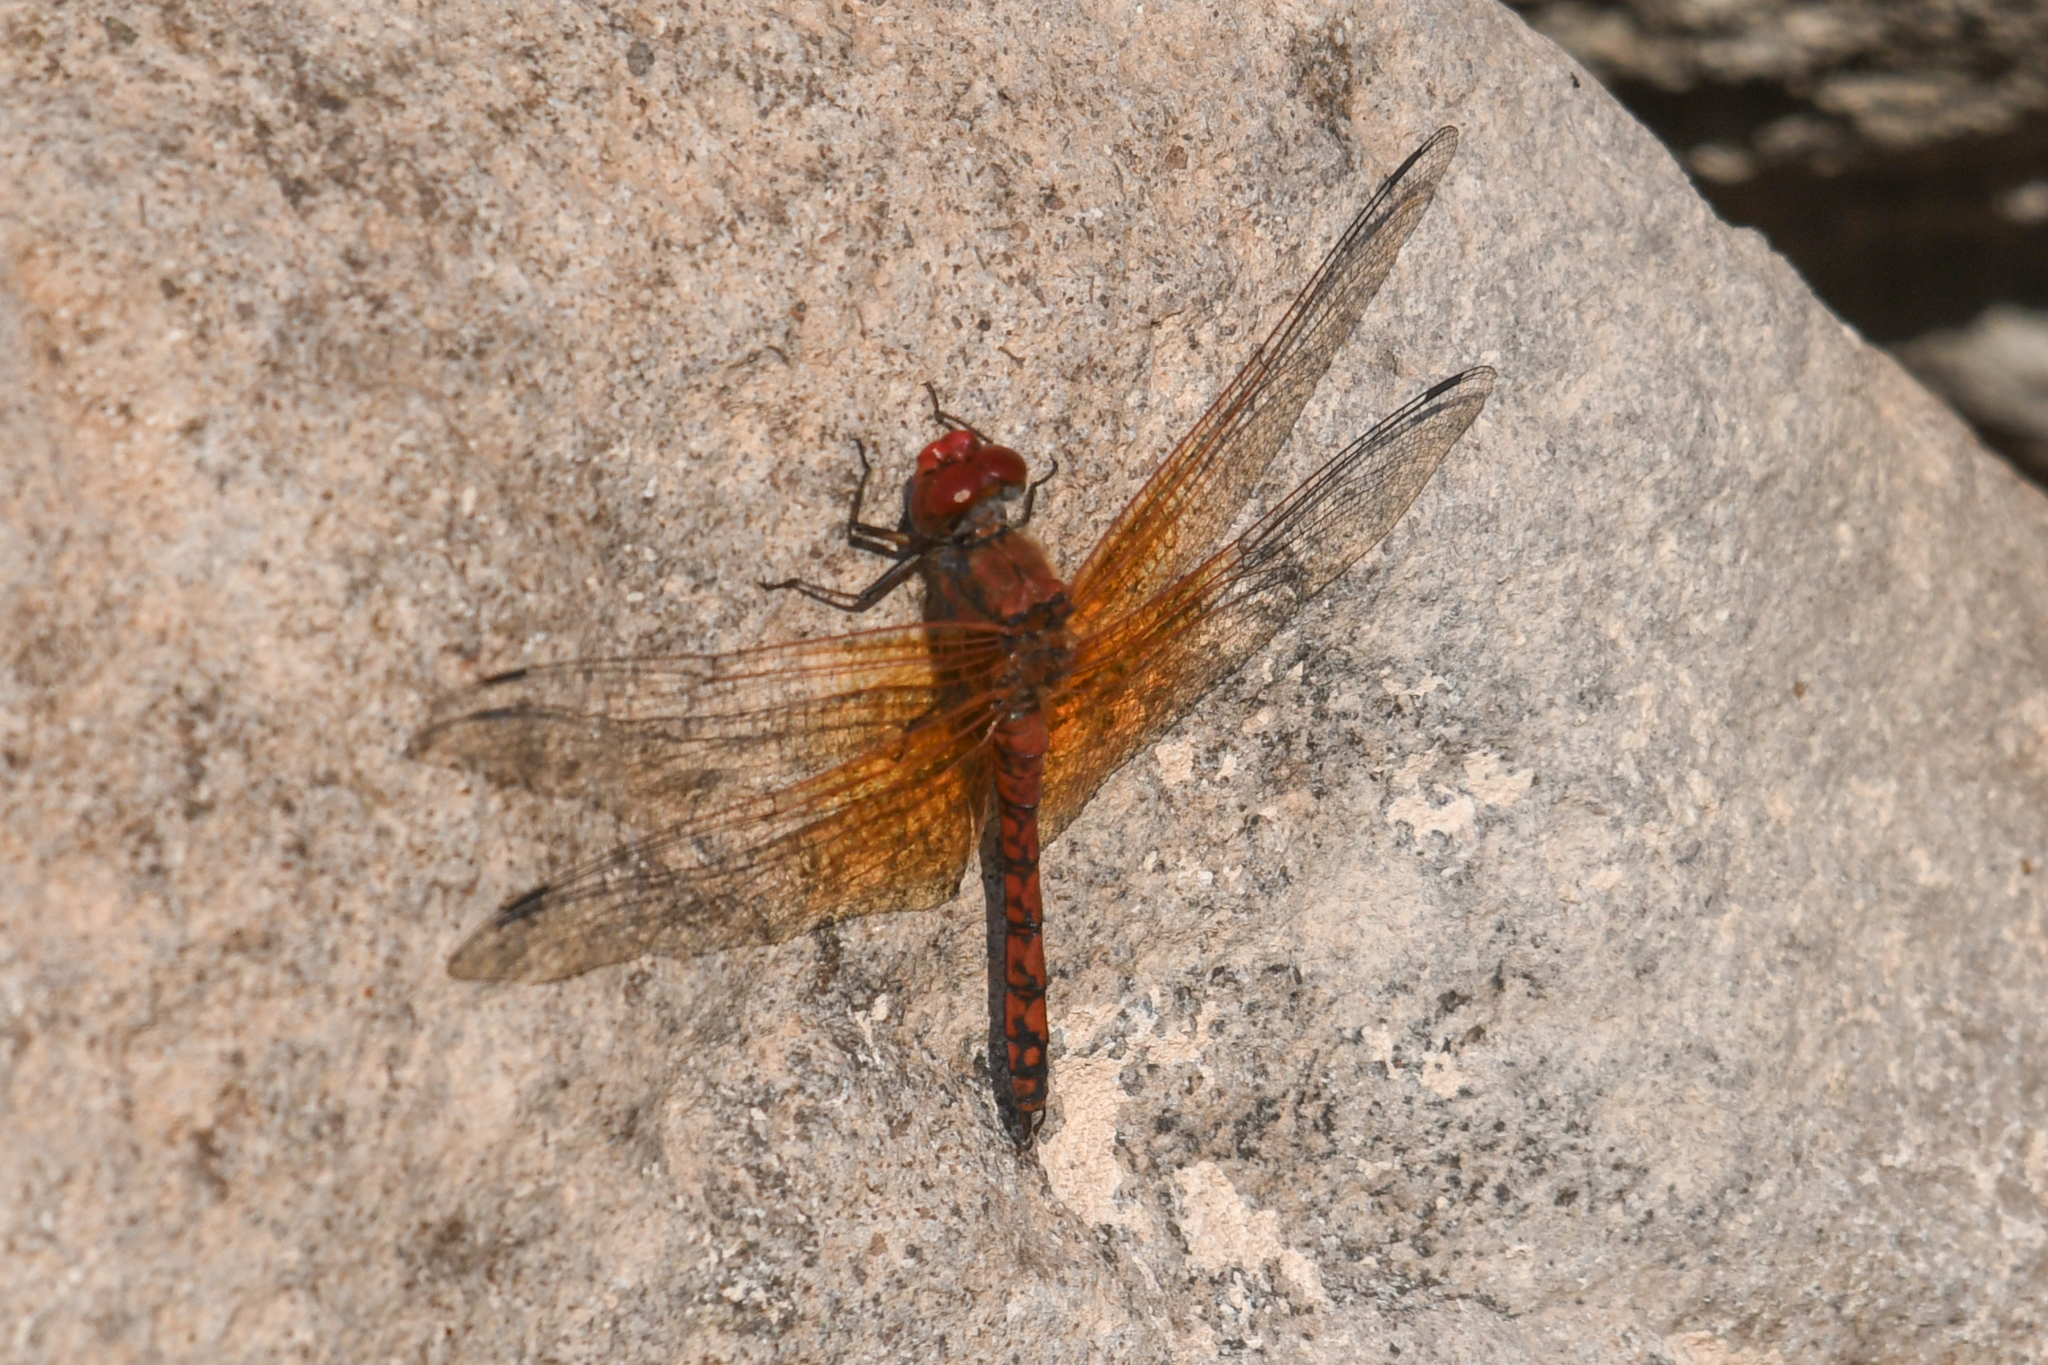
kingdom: Animalia
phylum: Arthropoda
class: Insecta
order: Odonata
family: Libellulidae
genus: Paltothemis
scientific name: Paltothemis lineatipes
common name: Red rock skimmer
